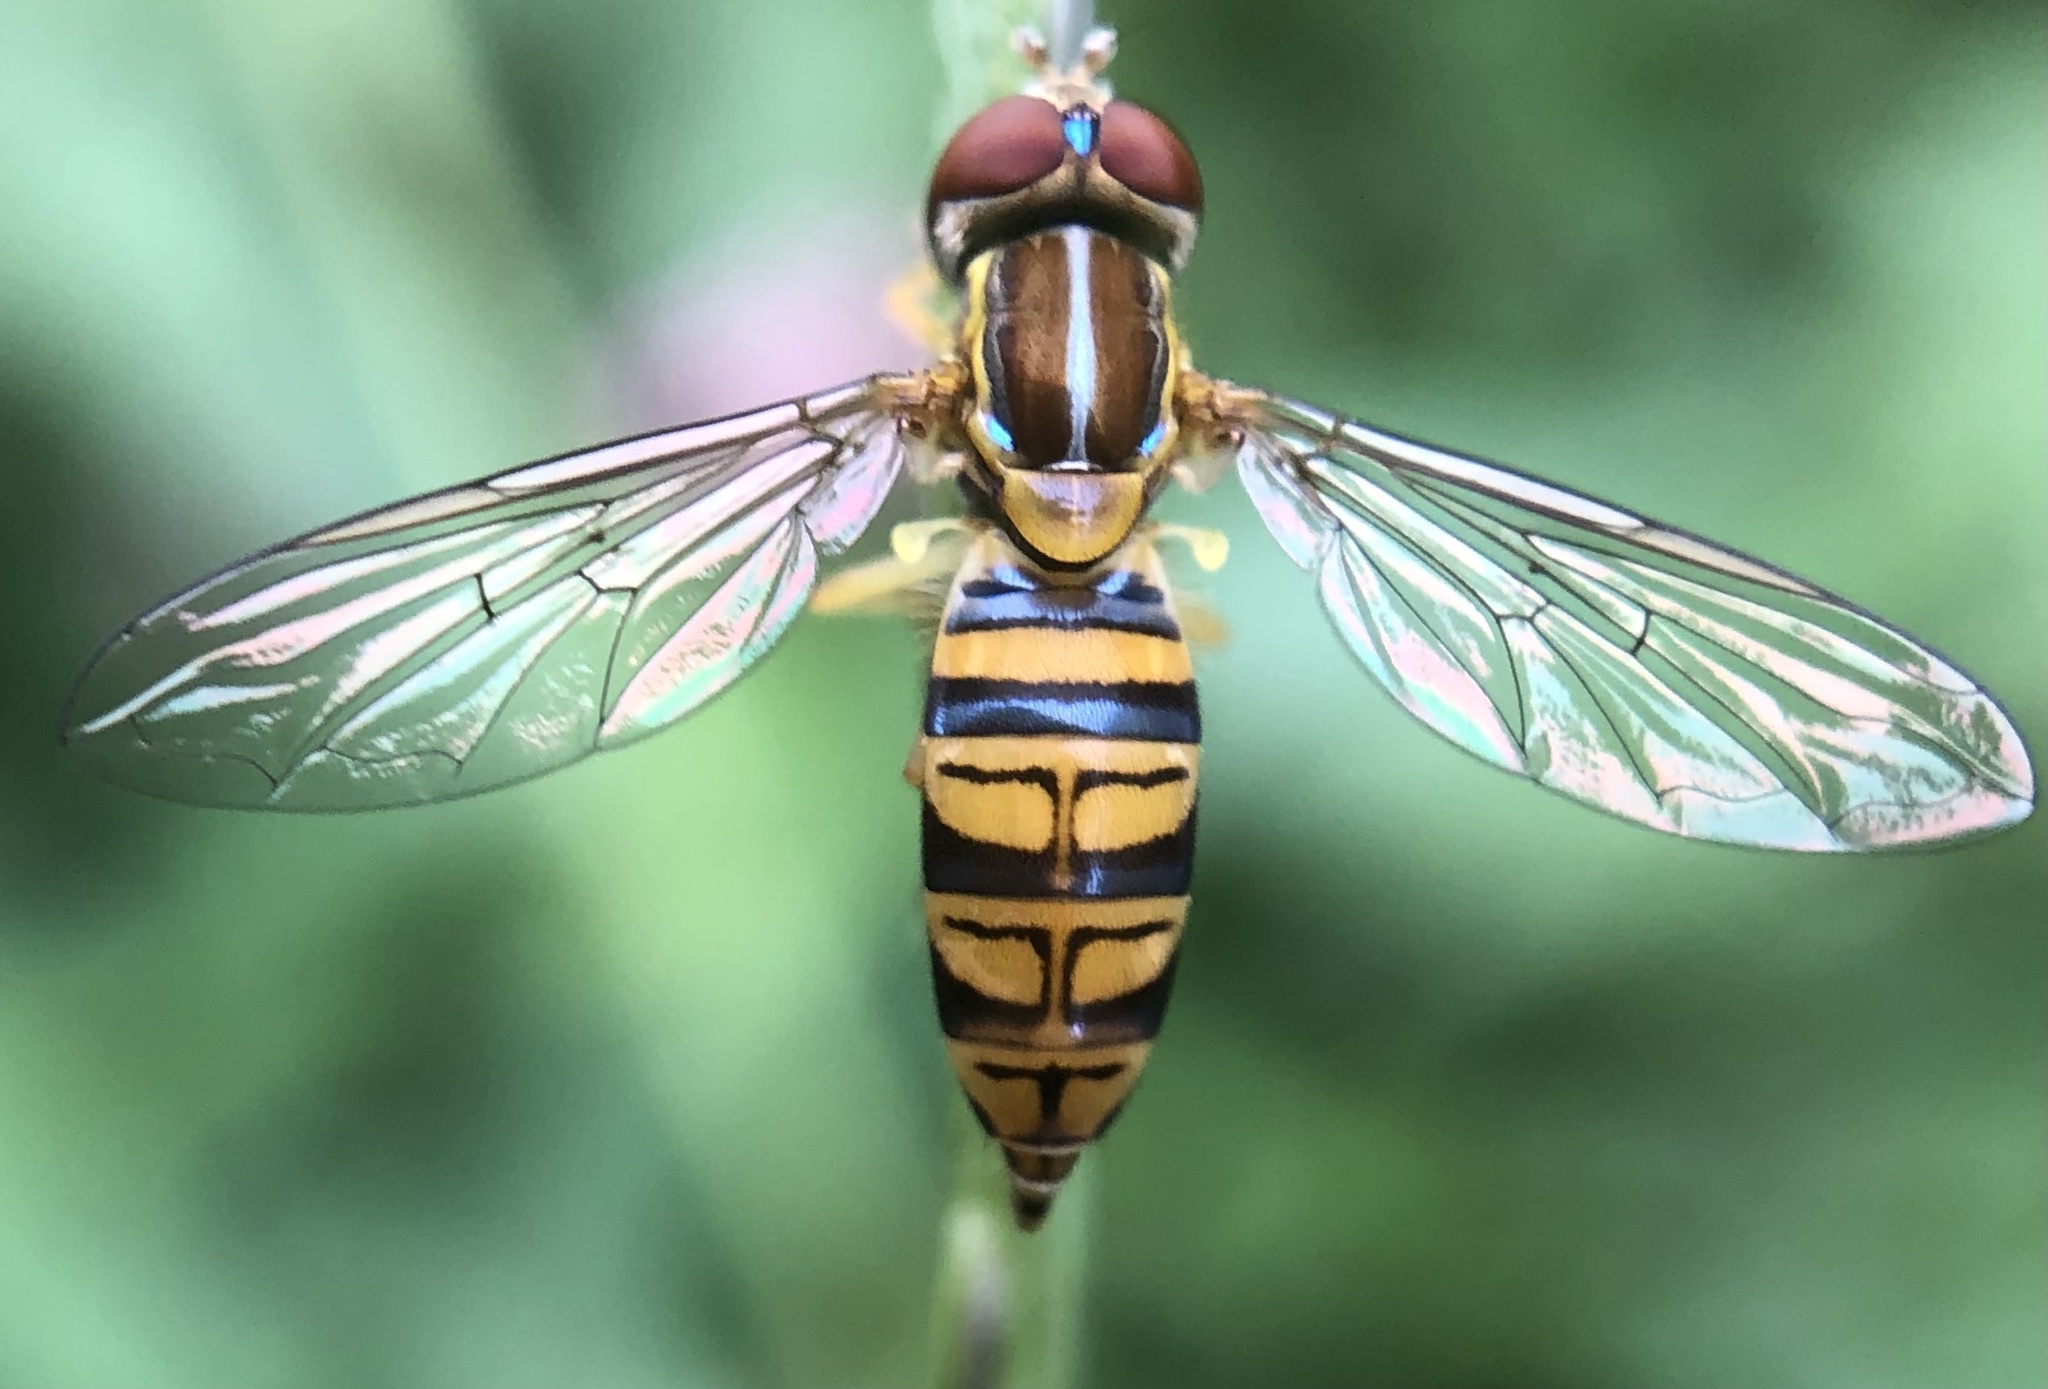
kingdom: Animalia
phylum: Arthropoda
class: Insecta
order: Diptera
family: Syrphidae
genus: Toxomerus
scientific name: Toxomerus politus
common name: Maize calligrapher
